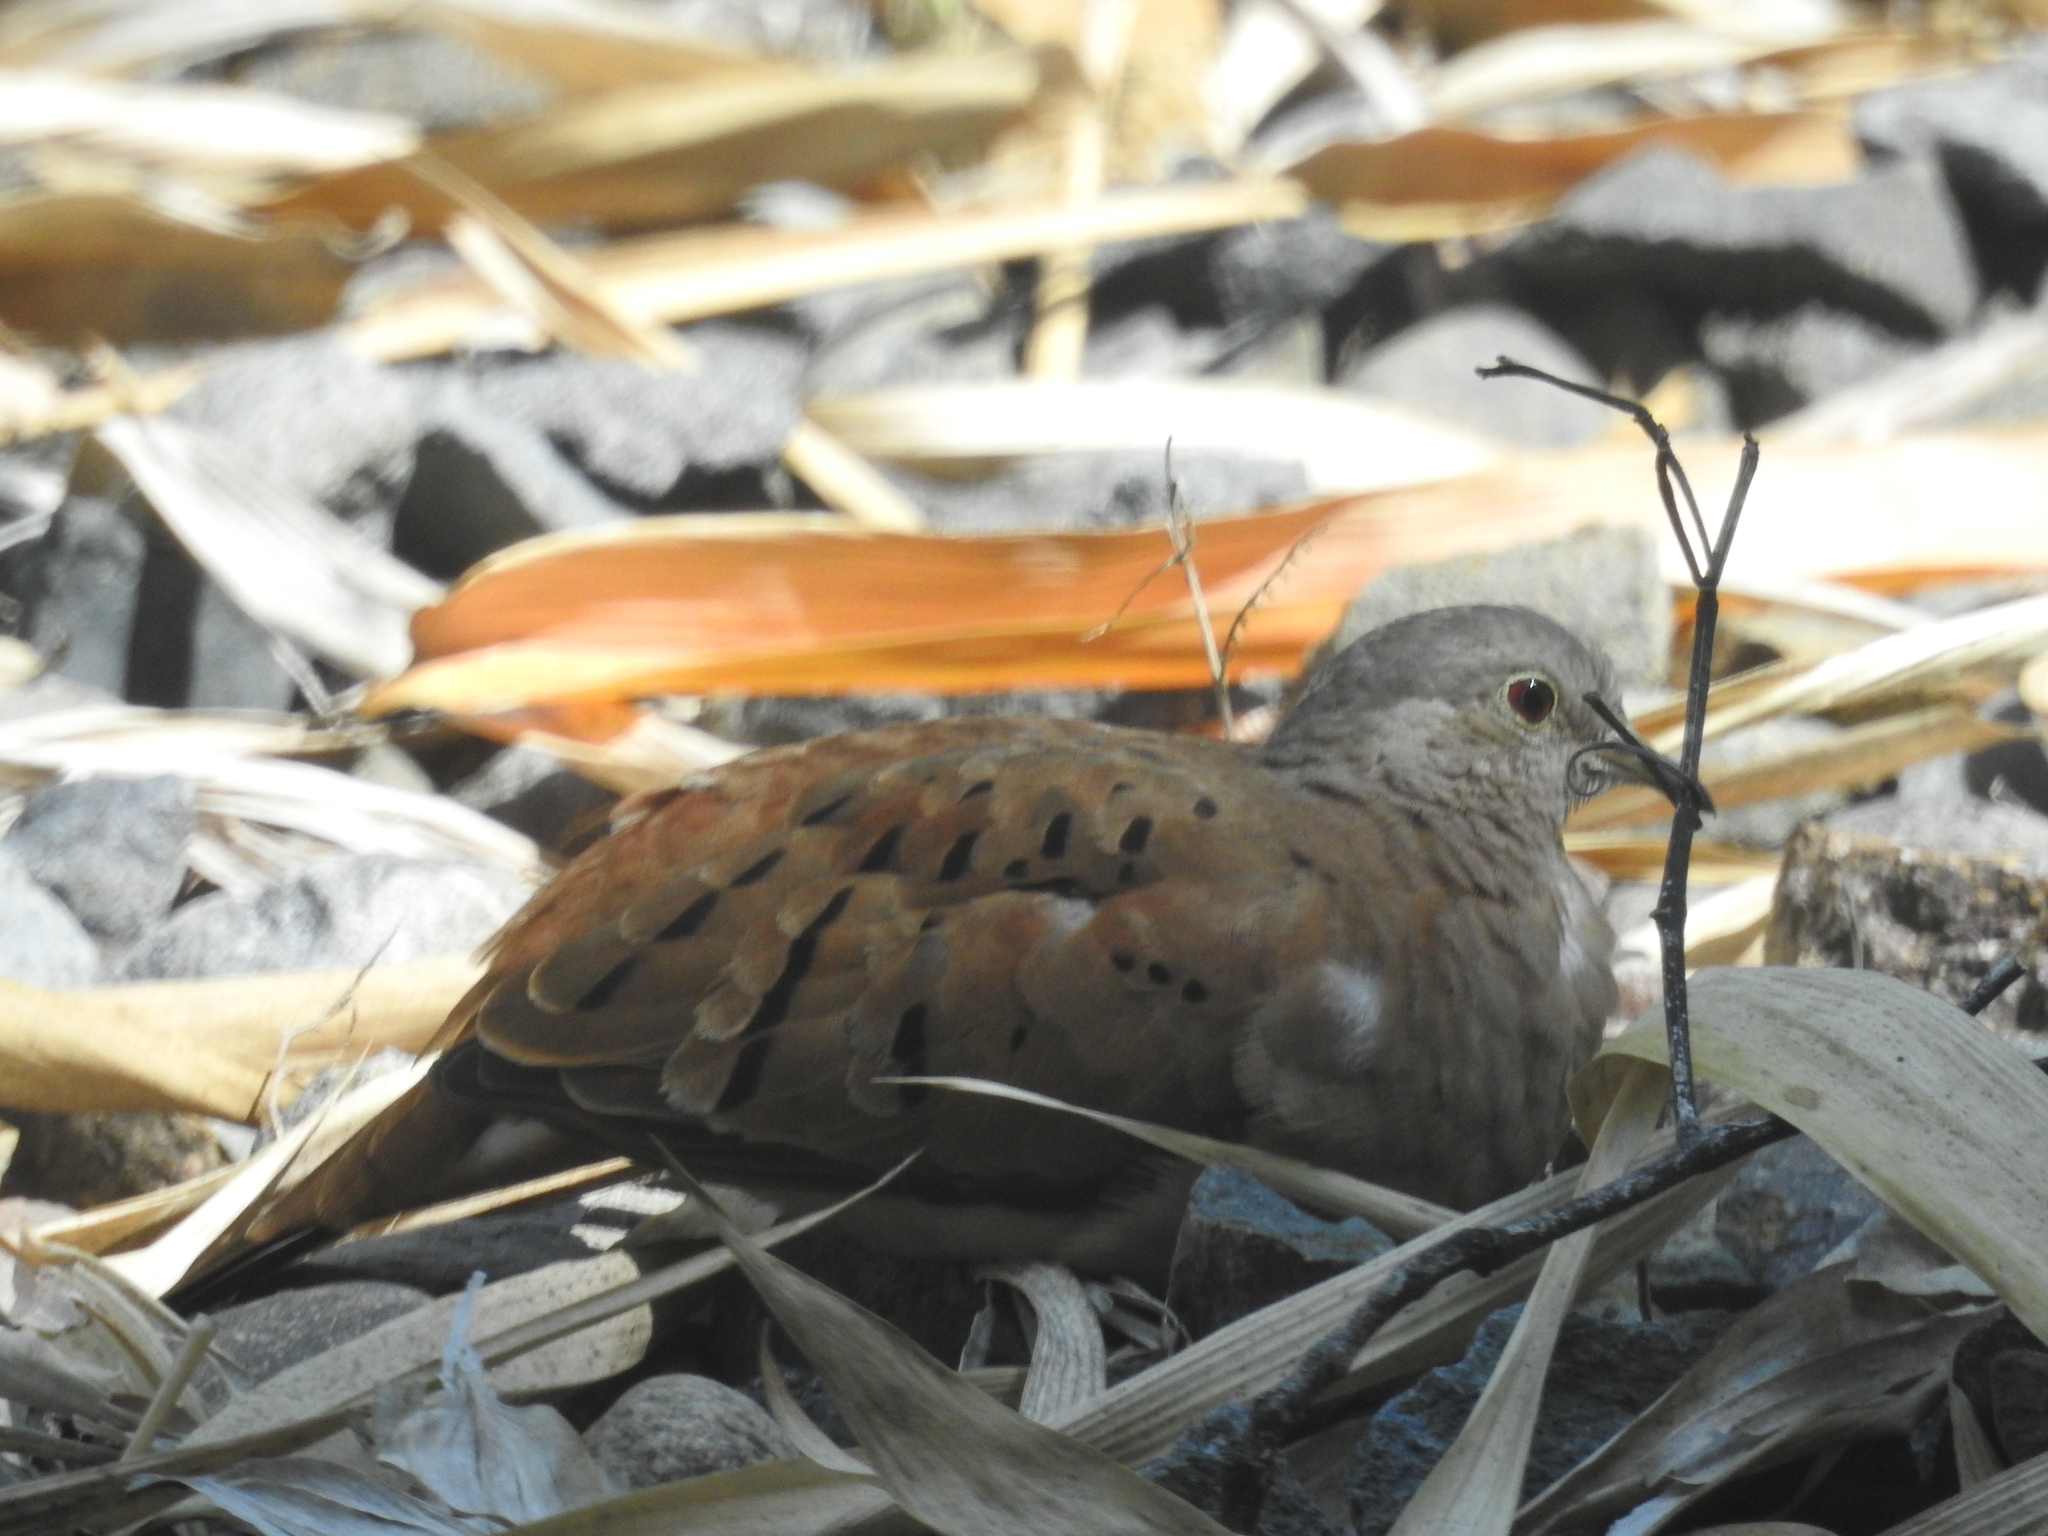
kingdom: Animalia
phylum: Chordata
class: Aves
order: Columbiformes
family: Columbidae
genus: Columbina
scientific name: Columbina talpacoti
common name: Ruddy ground dove
